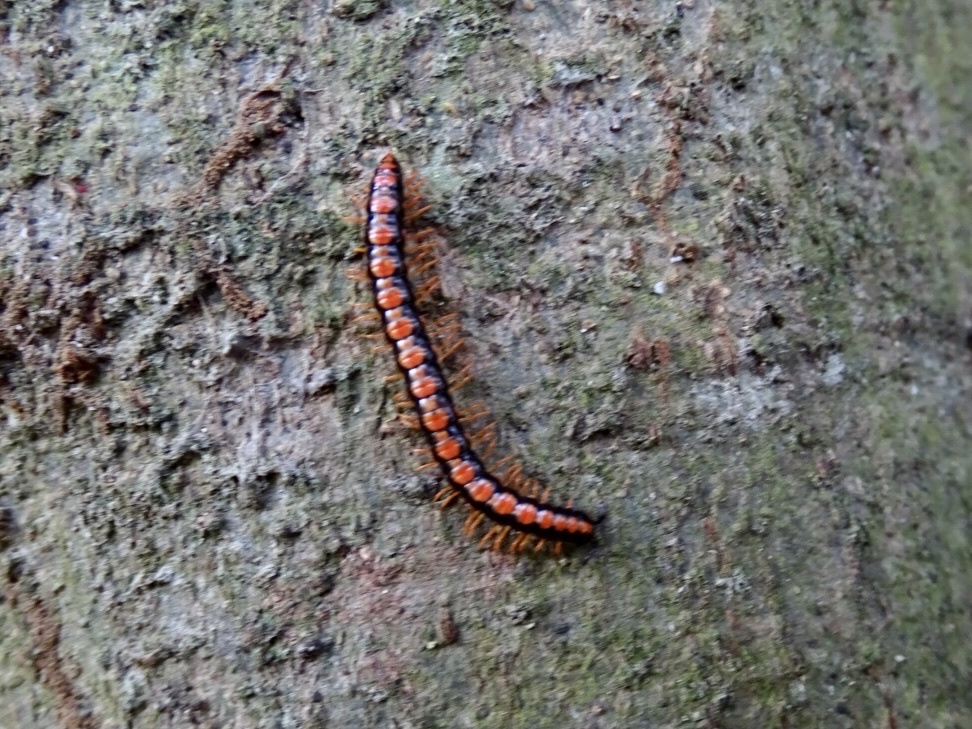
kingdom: Animalia
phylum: Arthropoda
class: Diplopoda
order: Polydesmida
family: Paradoxosomatidae
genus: Helicorthomorpha
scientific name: Helicorthomorpha holstii
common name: Millipede
